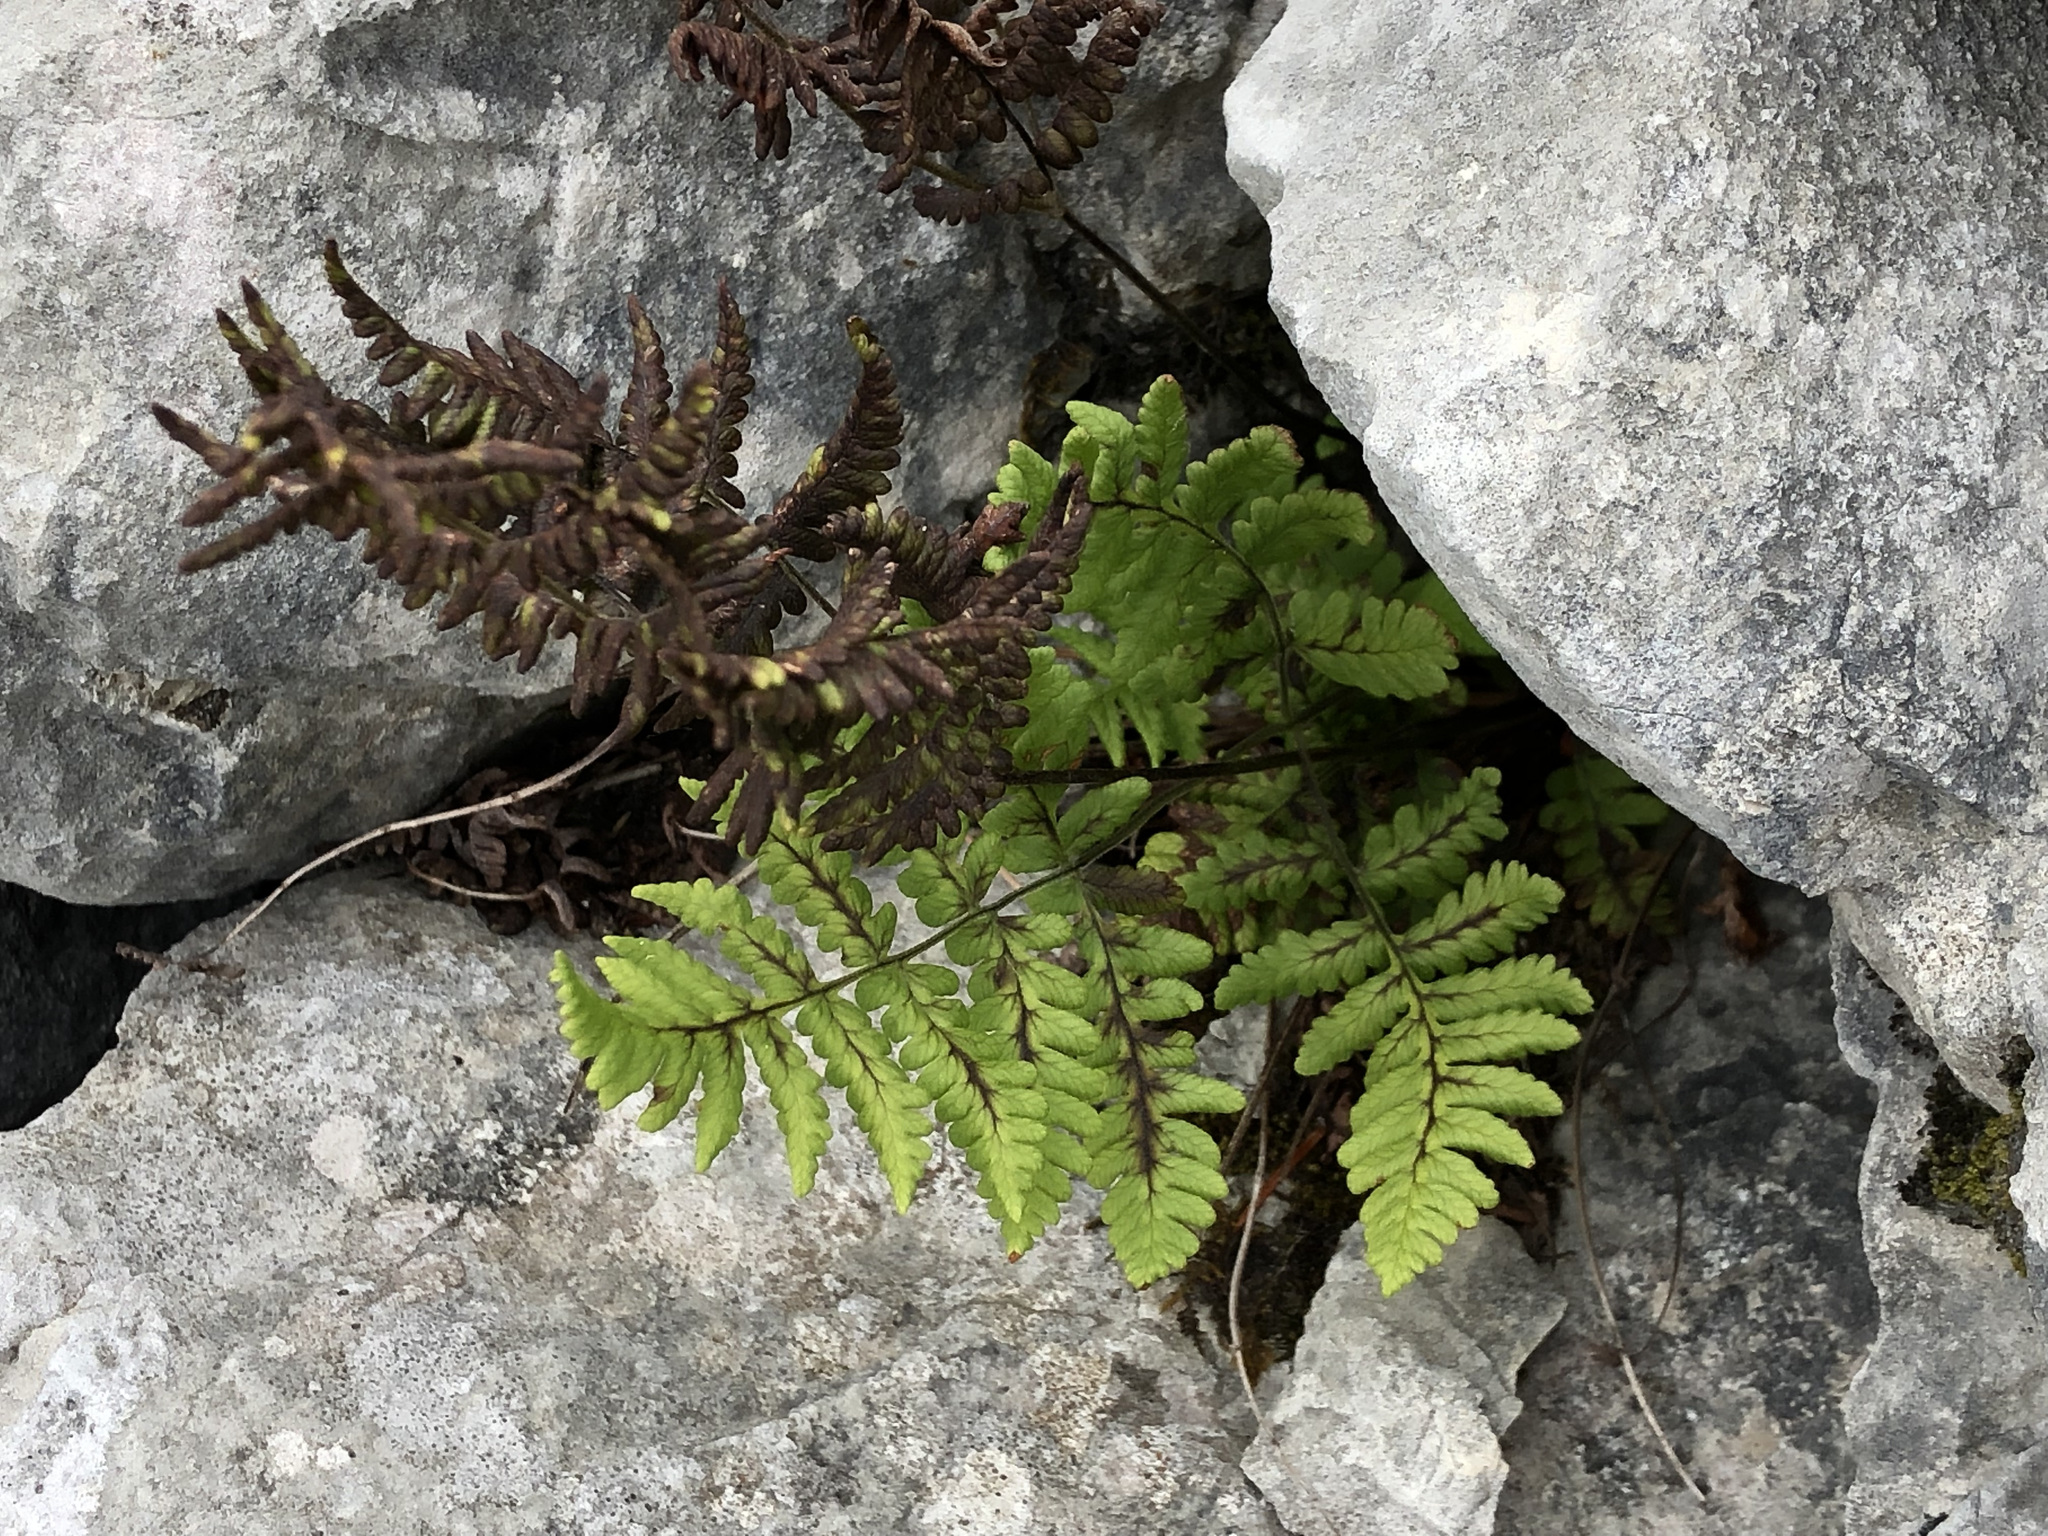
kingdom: Plantae
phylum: Tracheophyta
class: Polypodiopsida
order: Polypodiales
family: Cystopteridaceae
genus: Gymnocarpium
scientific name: Gymnocarpium robertianum
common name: Limestone fern
